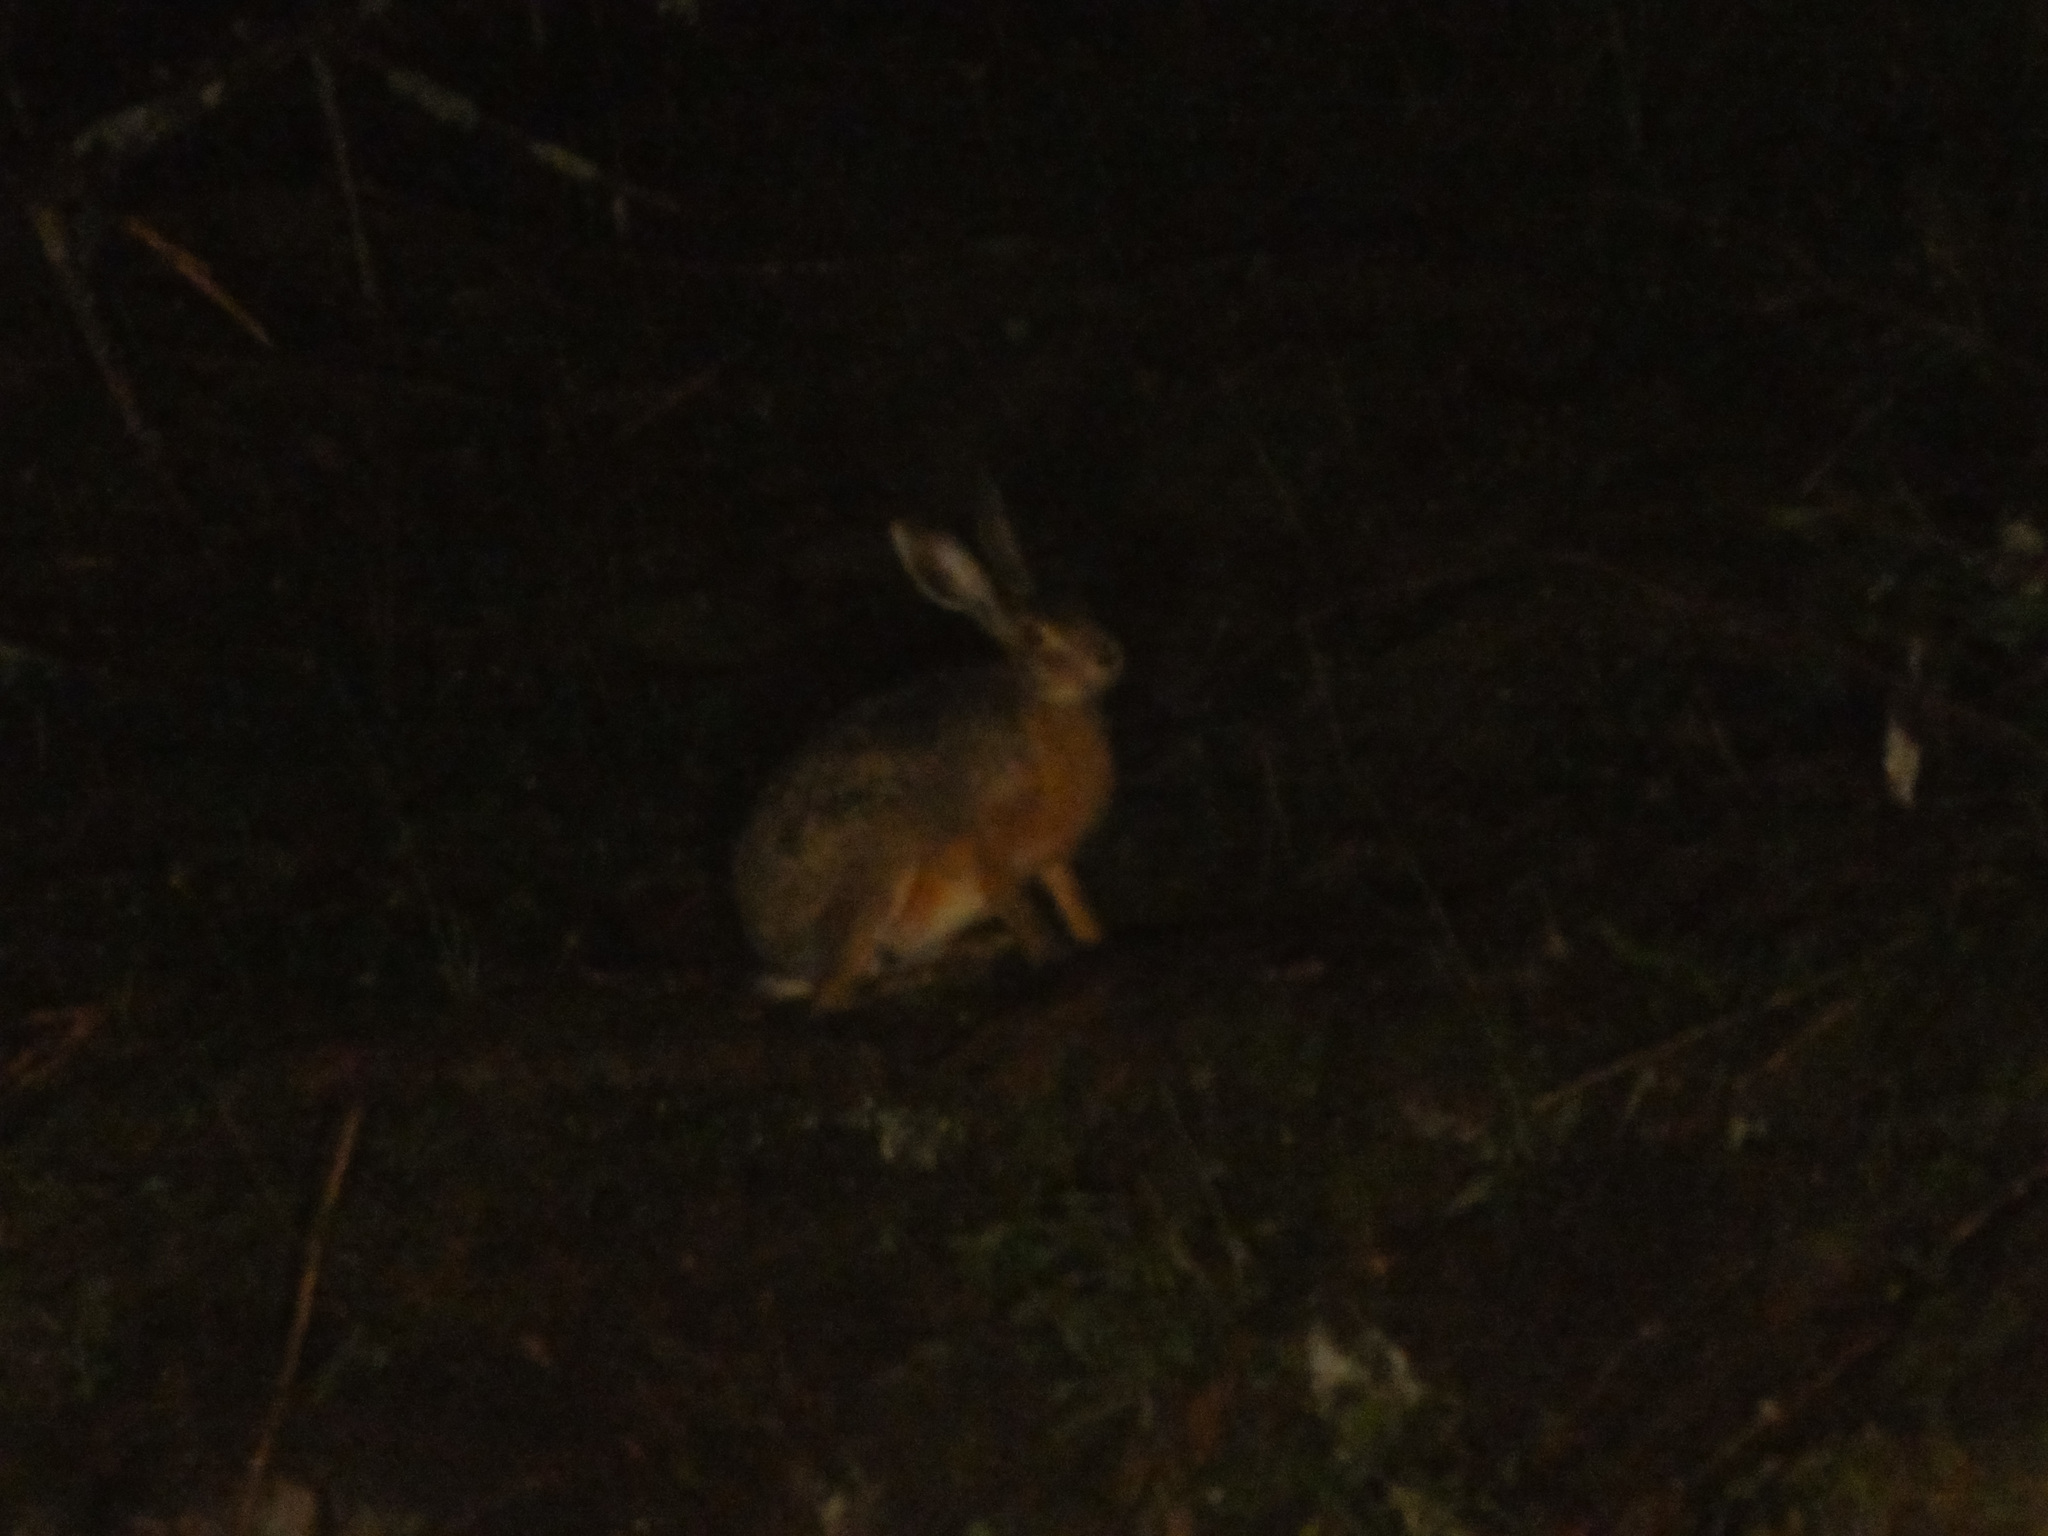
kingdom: Animalia
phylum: Chordata
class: Mammalia
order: Lagomorpha
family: Leporidae
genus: Lepus
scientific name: Lepus europaeus
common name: European hare
